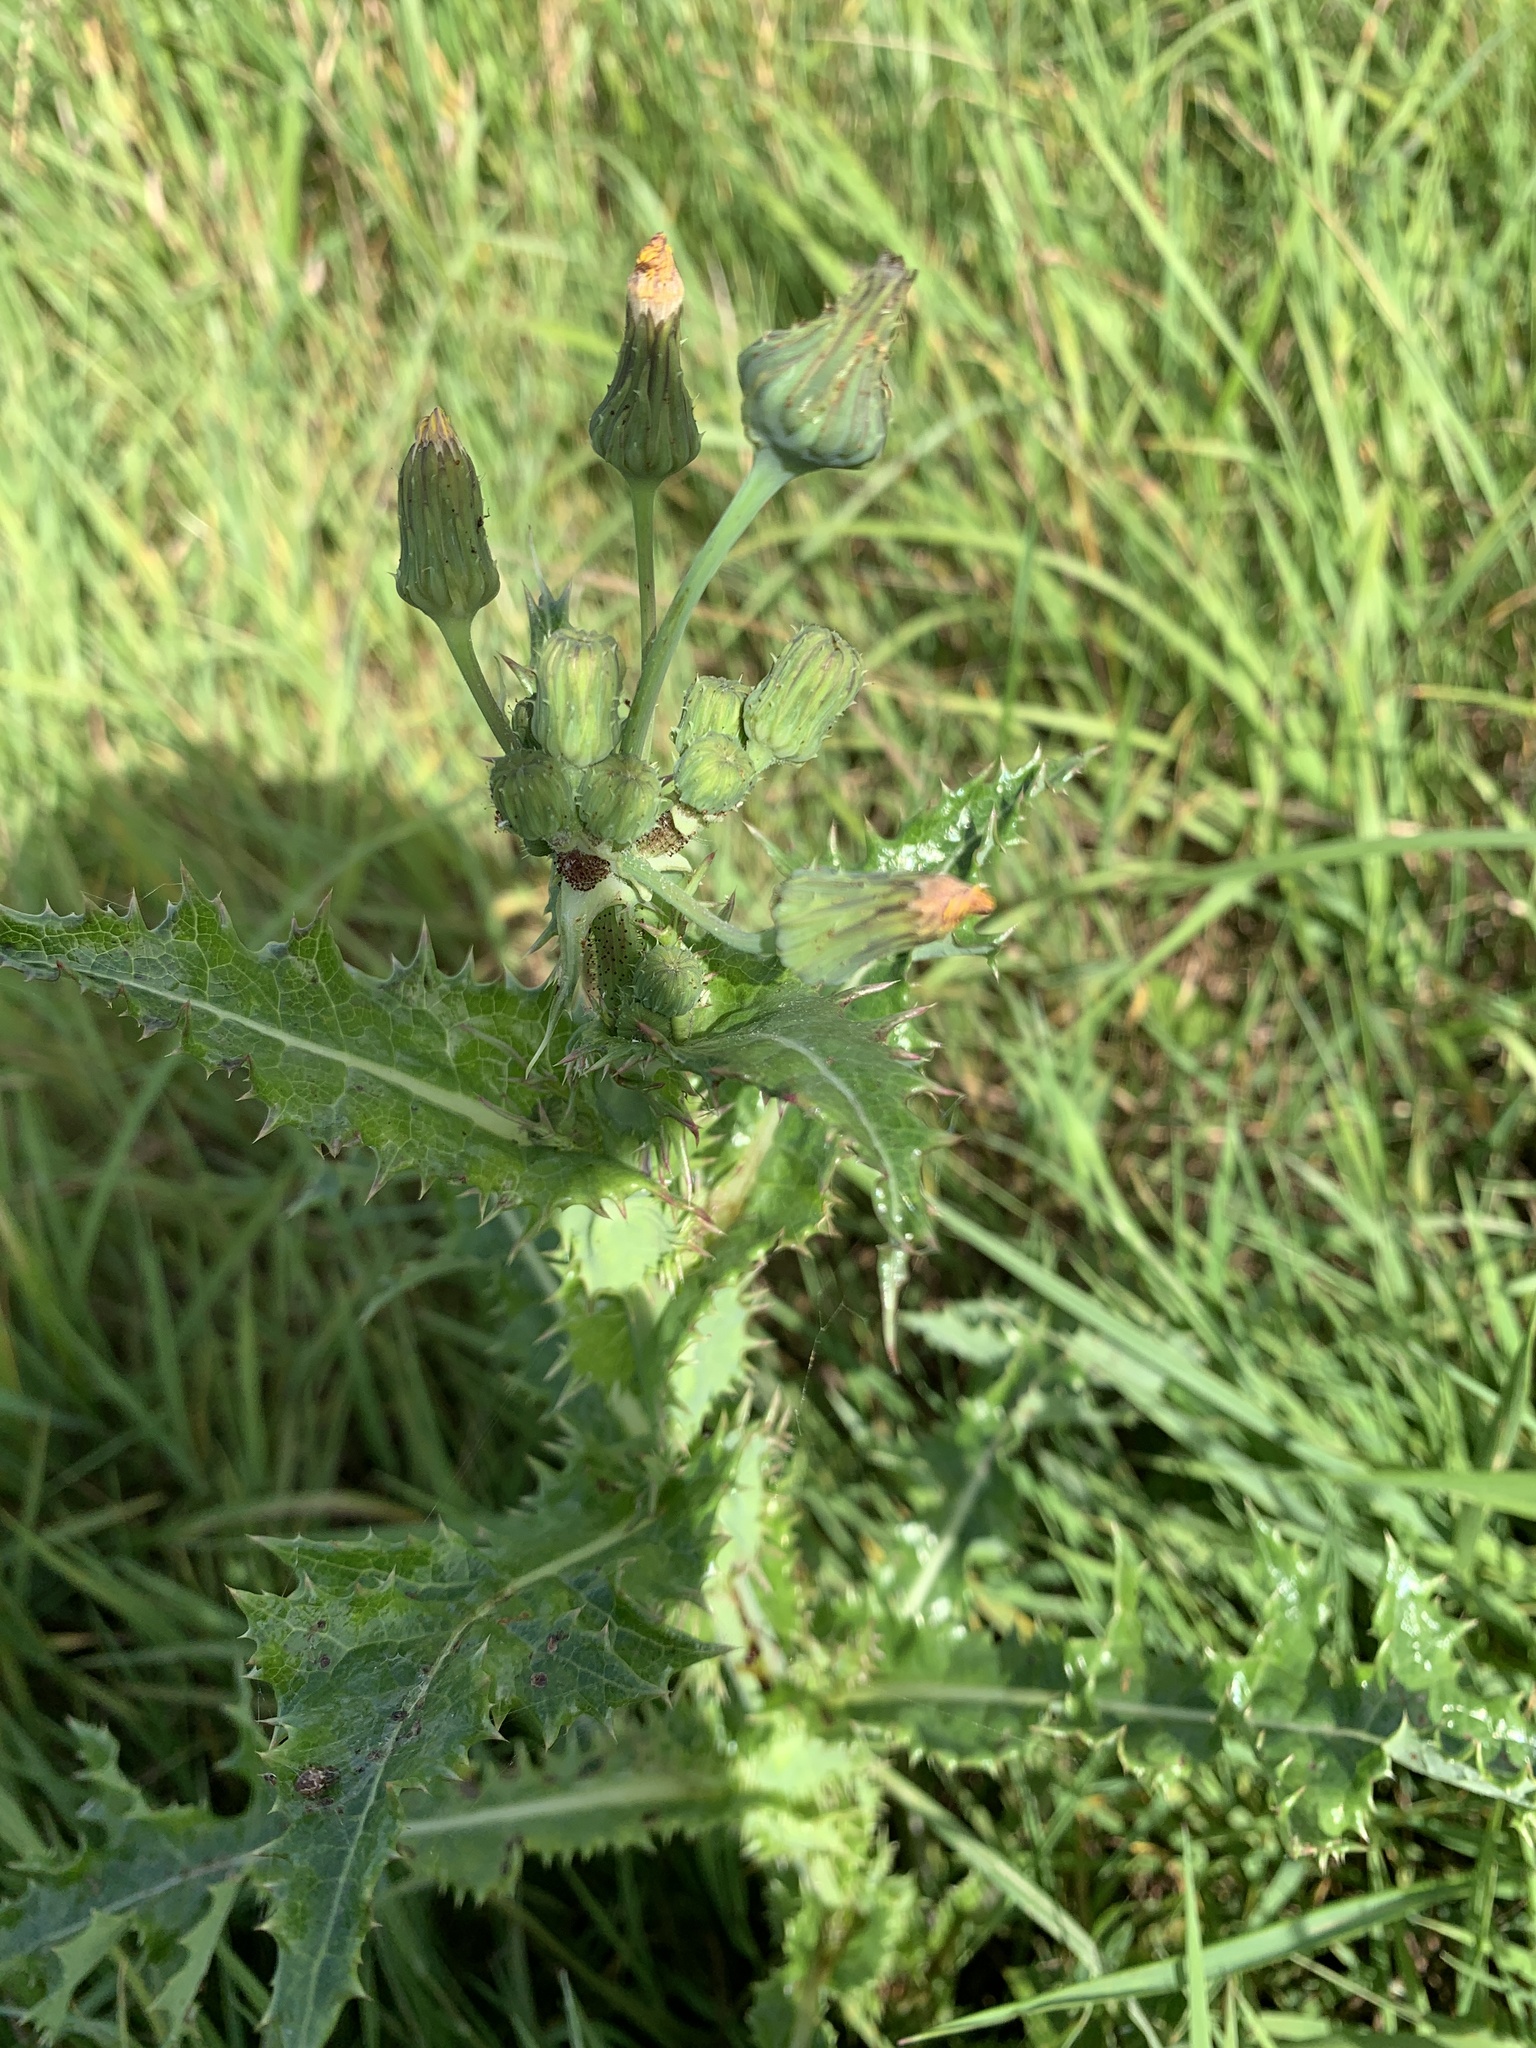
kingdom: Plantae
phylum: Tracheophyta
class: Magnoliopsida
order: Asterales
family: Asteraceae
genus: Sonchus
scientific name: Sonchus asper
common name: Prickly sow-thistle
